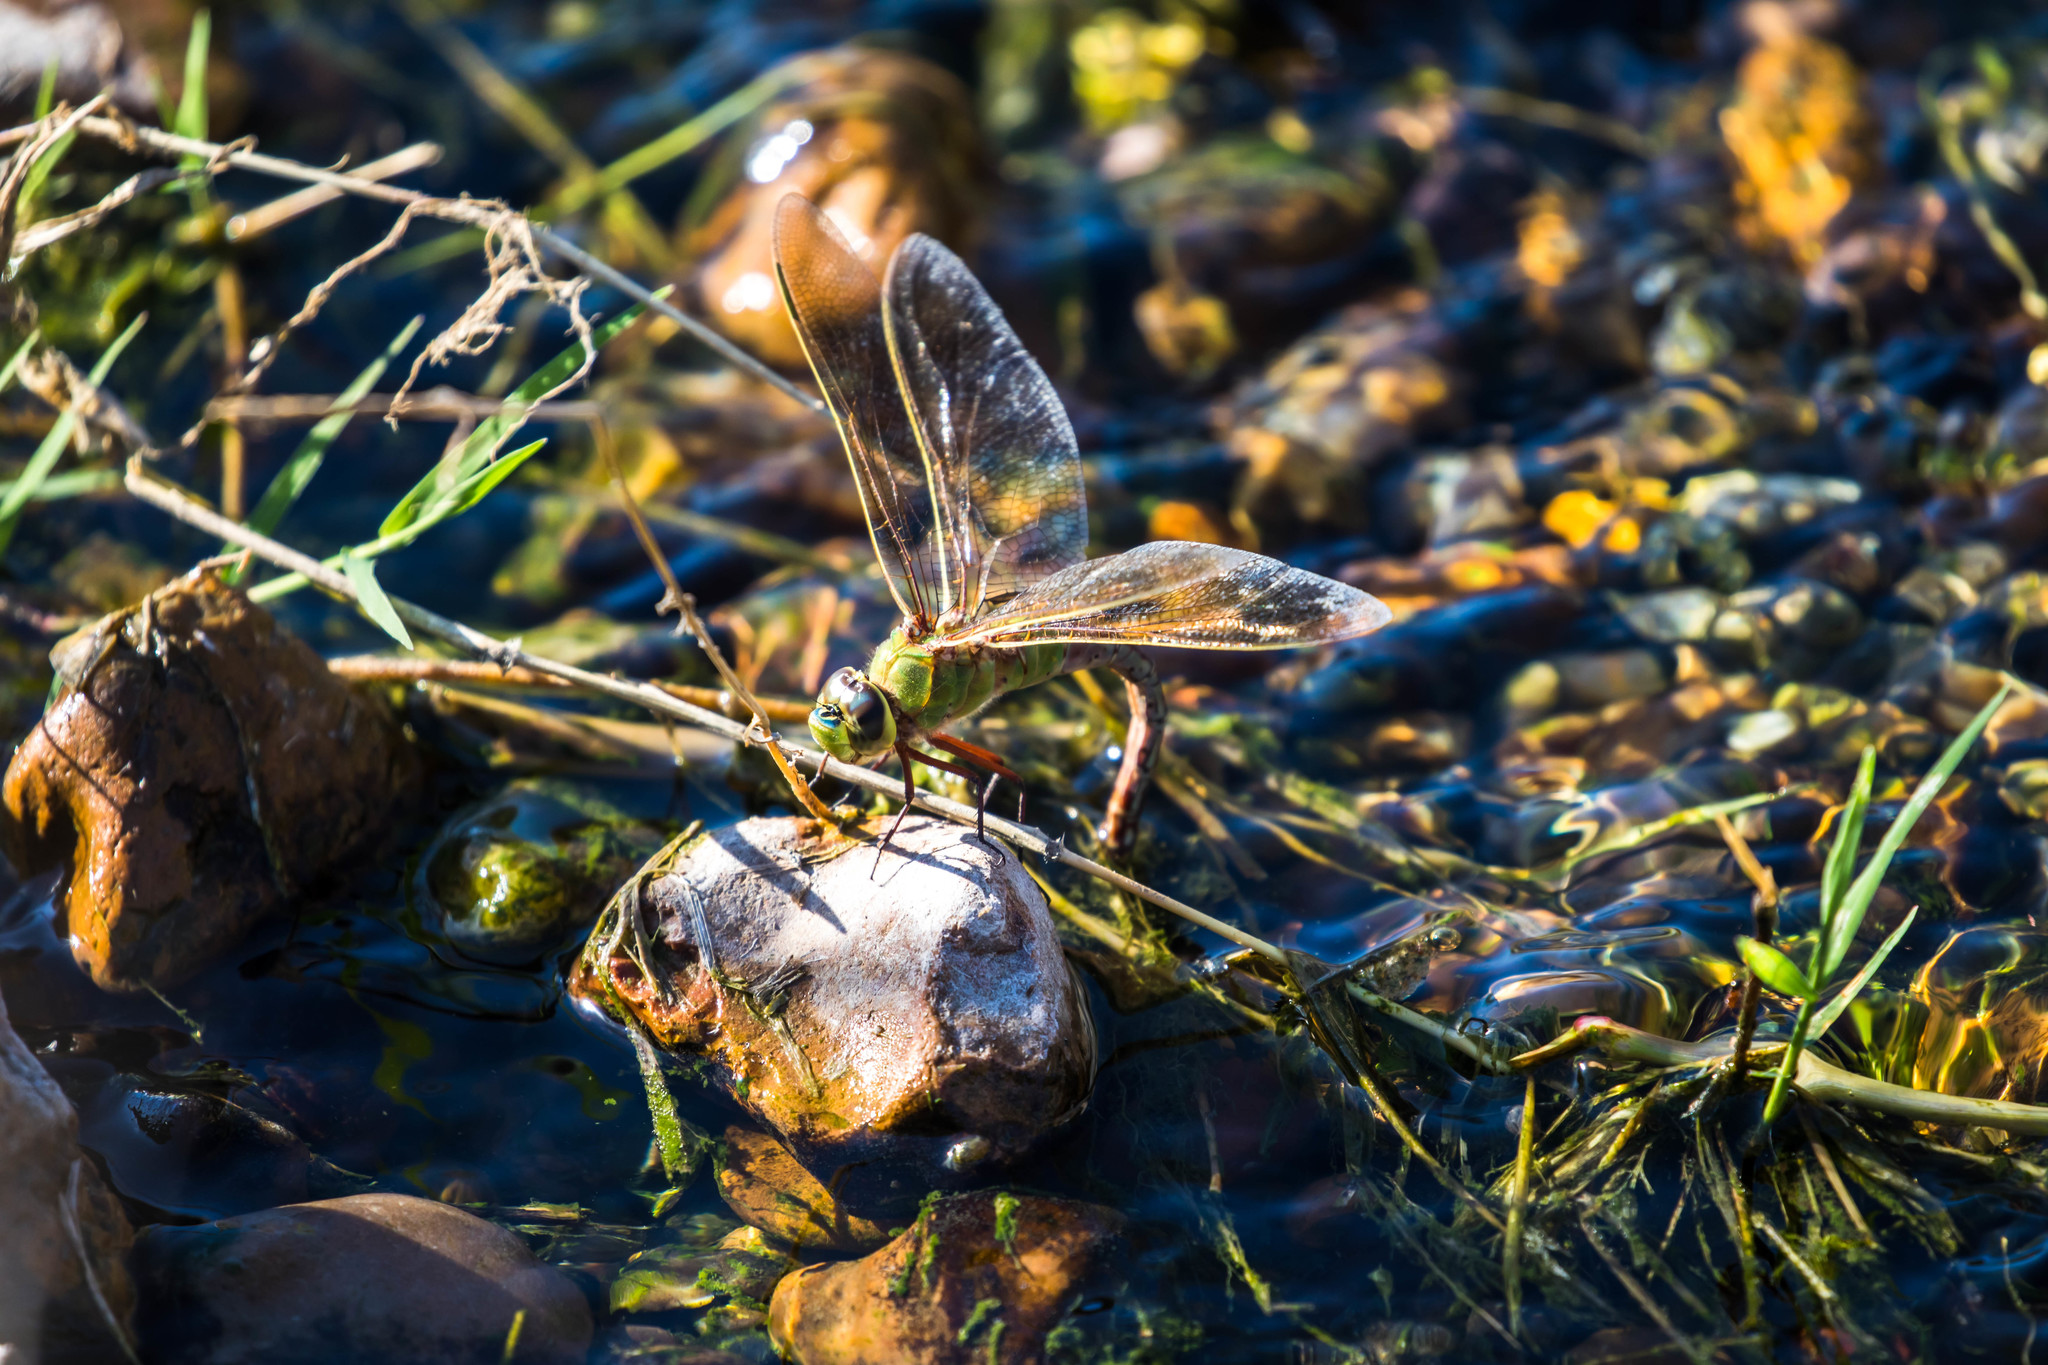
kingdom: Animalia
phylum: Arthropoda
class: Insecta
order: Odonata
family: Aeshnidae
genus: Anax
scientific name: Anax junius
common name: Common green darner
